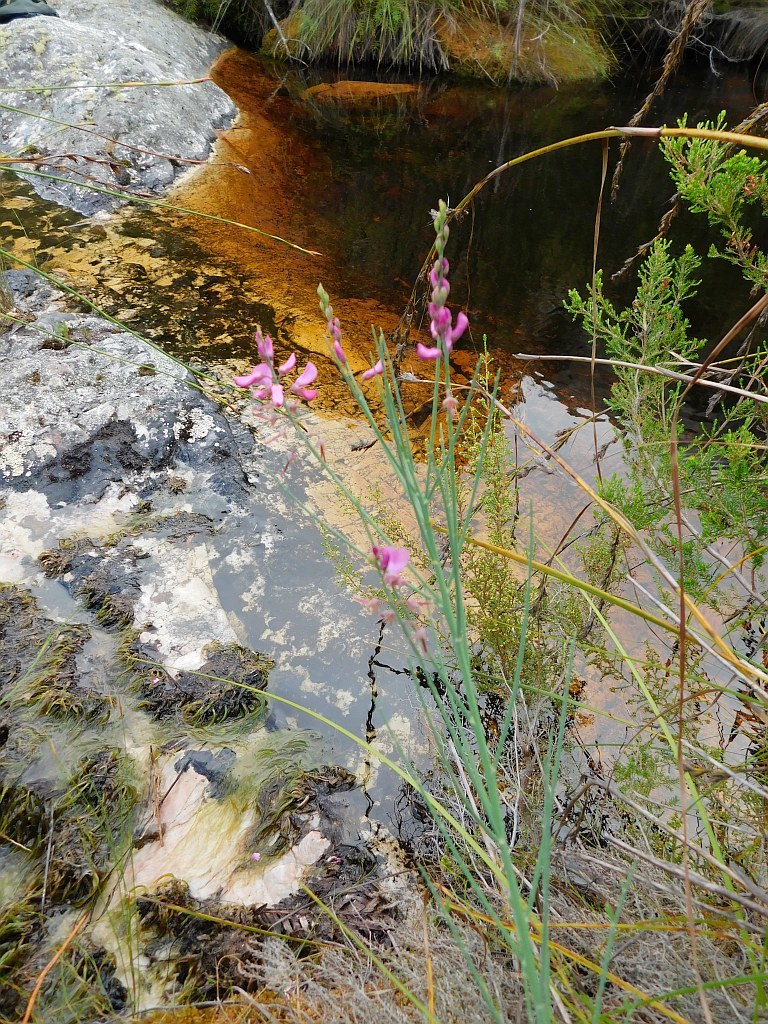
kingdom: Plantae
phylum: Tracheophyta
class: Magnoliopsida
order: Fabales
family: Fabaceae
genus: Indigofera
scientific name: Indigofera filifolia
